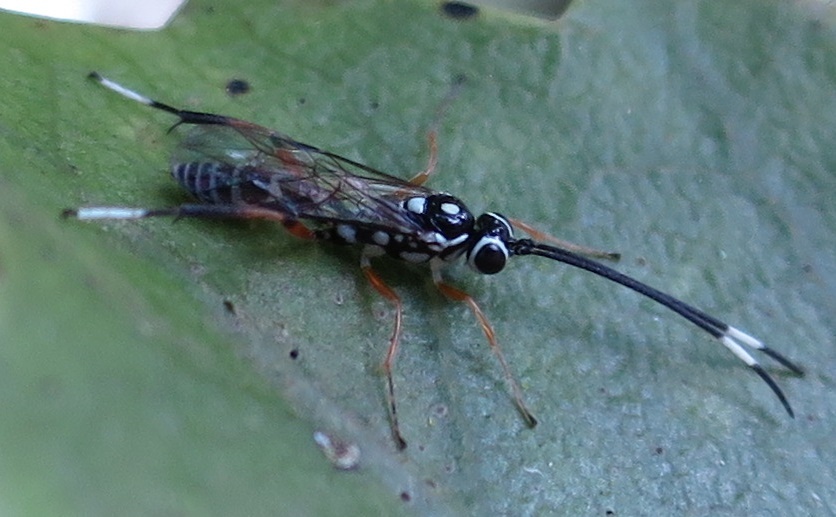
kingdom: Animalia
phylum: Arthropoda
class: Insecta
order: Hymenoptera
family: Ichneumonidae
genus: Glabridorsum
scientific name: Glabridorsum stokesii
